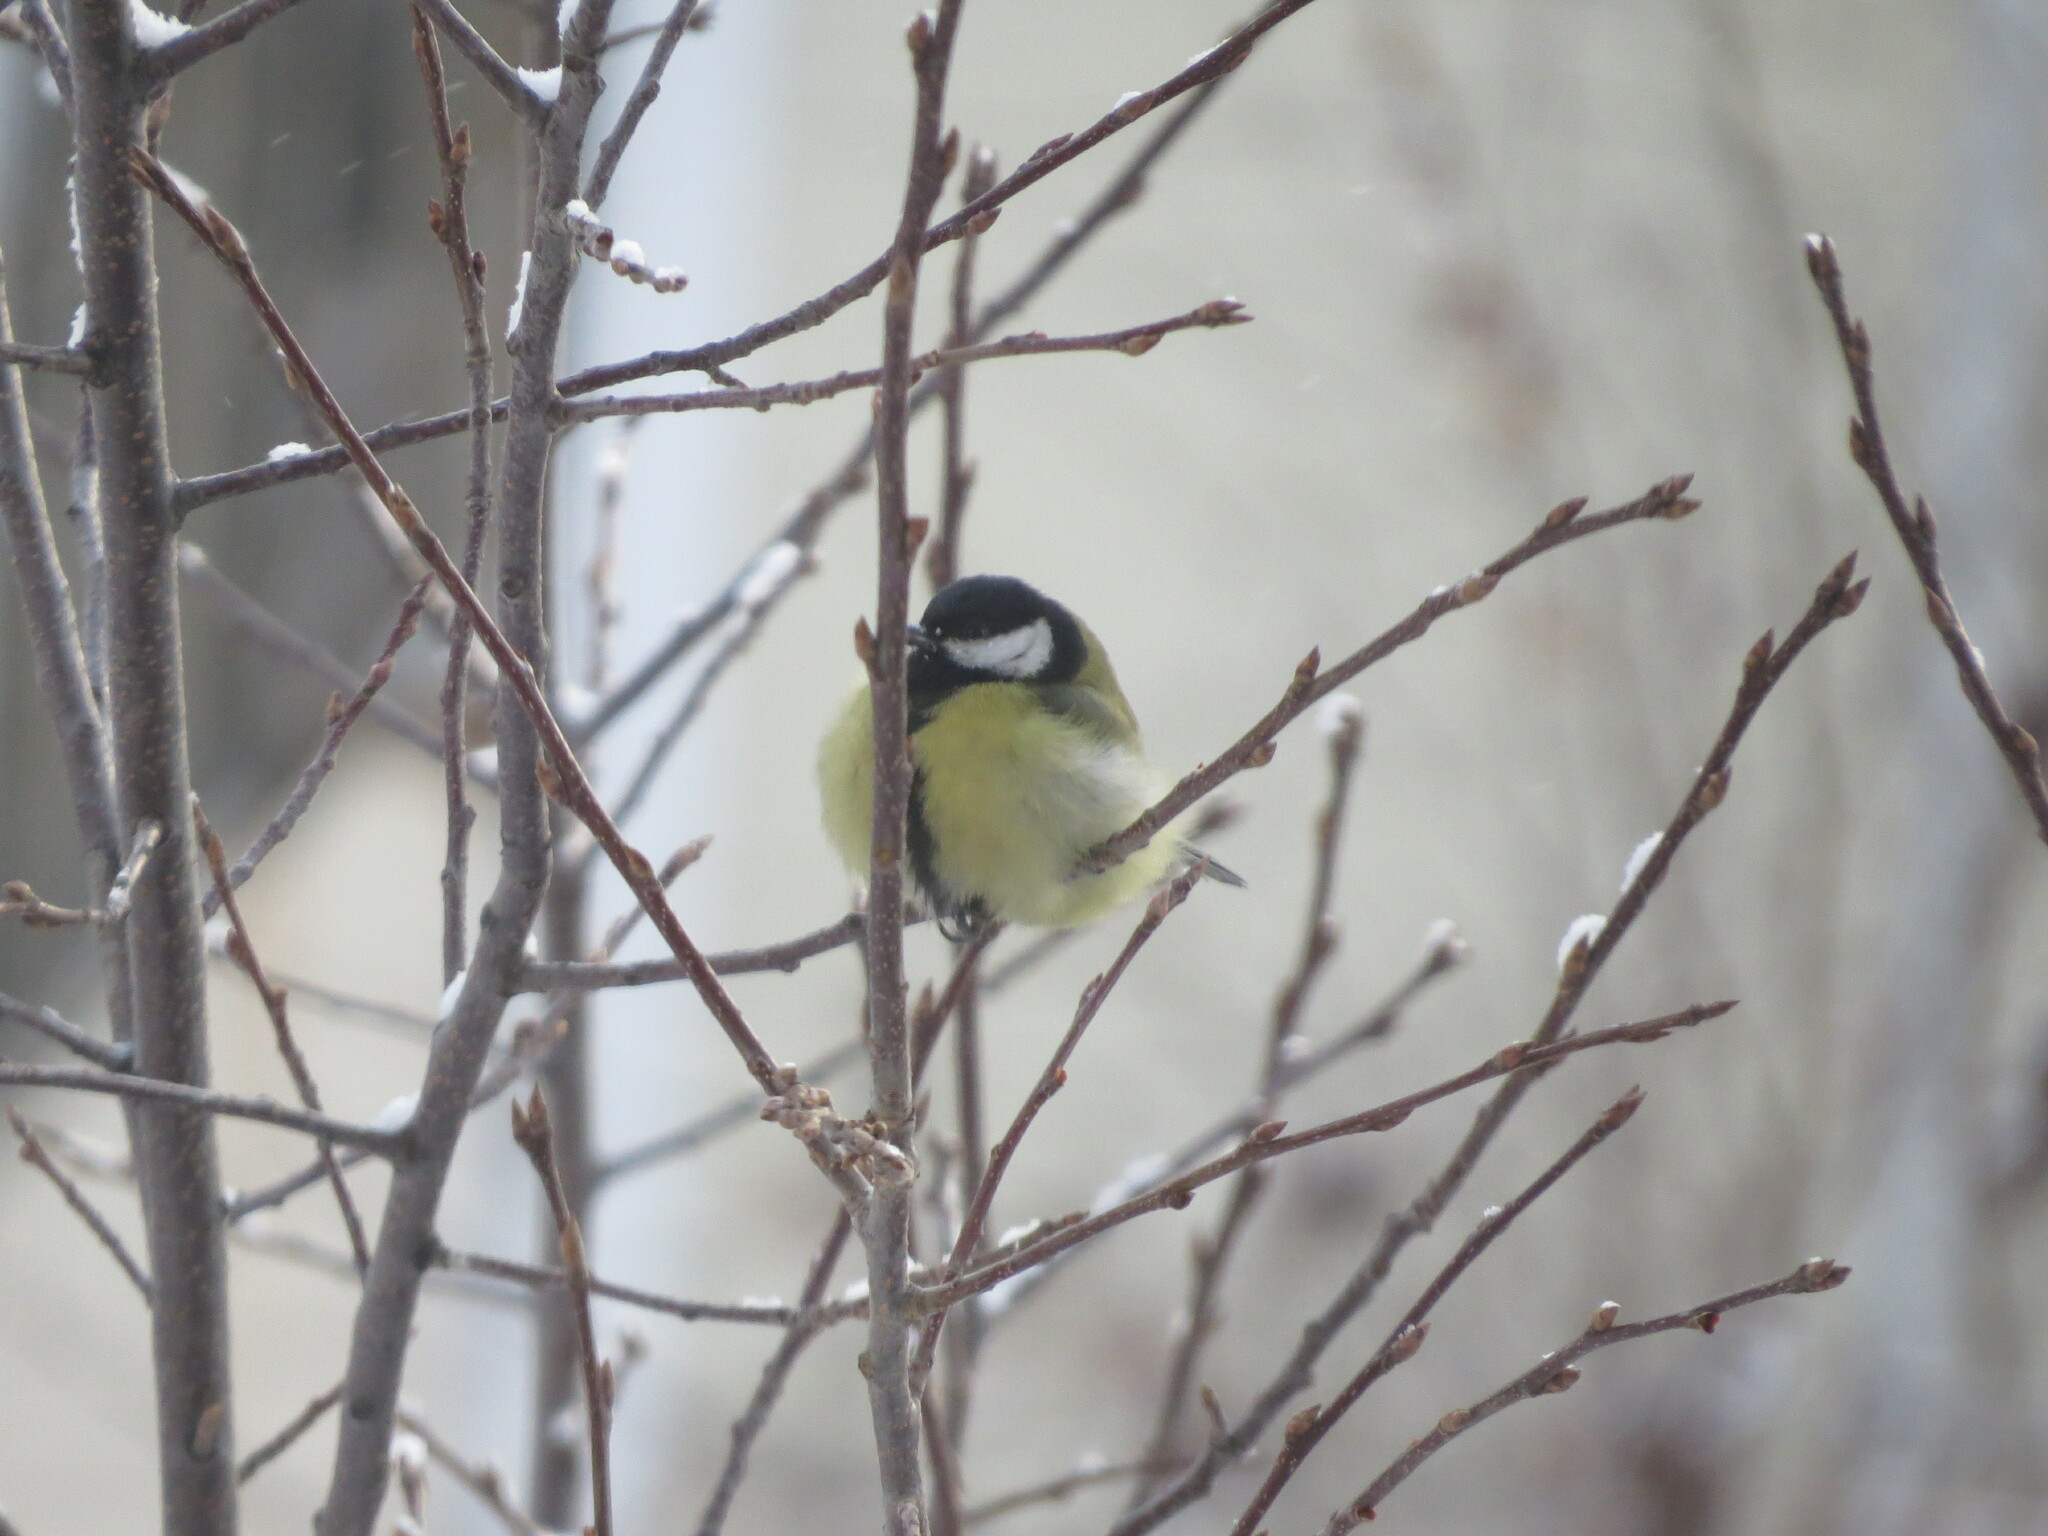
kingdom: Animalia
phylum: Chordata
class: Aves
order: Passeriformes
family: Paridae
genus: Parus
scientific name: Parus major
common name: Great tit
